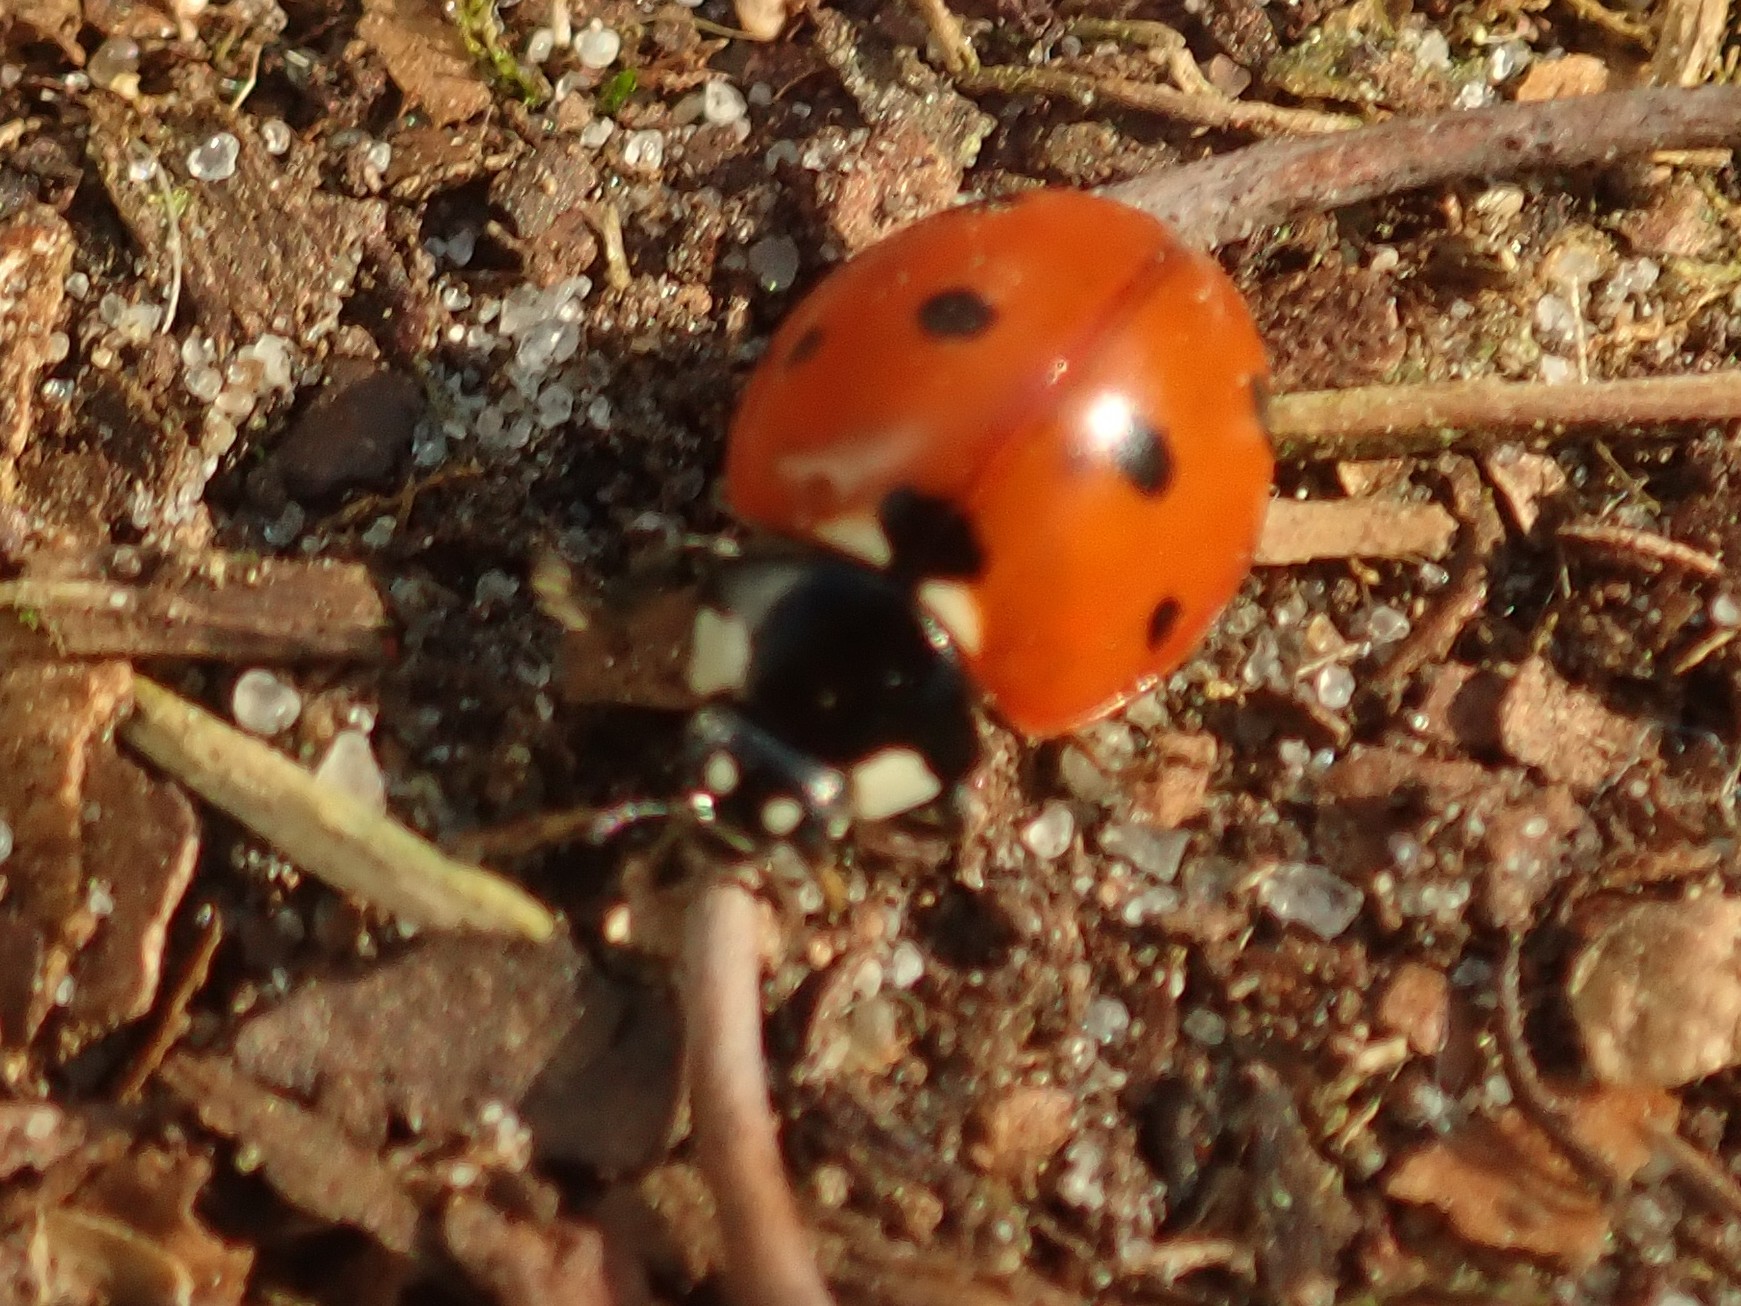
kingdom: Animalia
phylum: Arthropoda
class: Insecta
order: Coleoptera
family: Coccinellidae
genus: Coccinella
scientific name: Coccinella septempunctata
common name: Sevenspotted lady beetle
